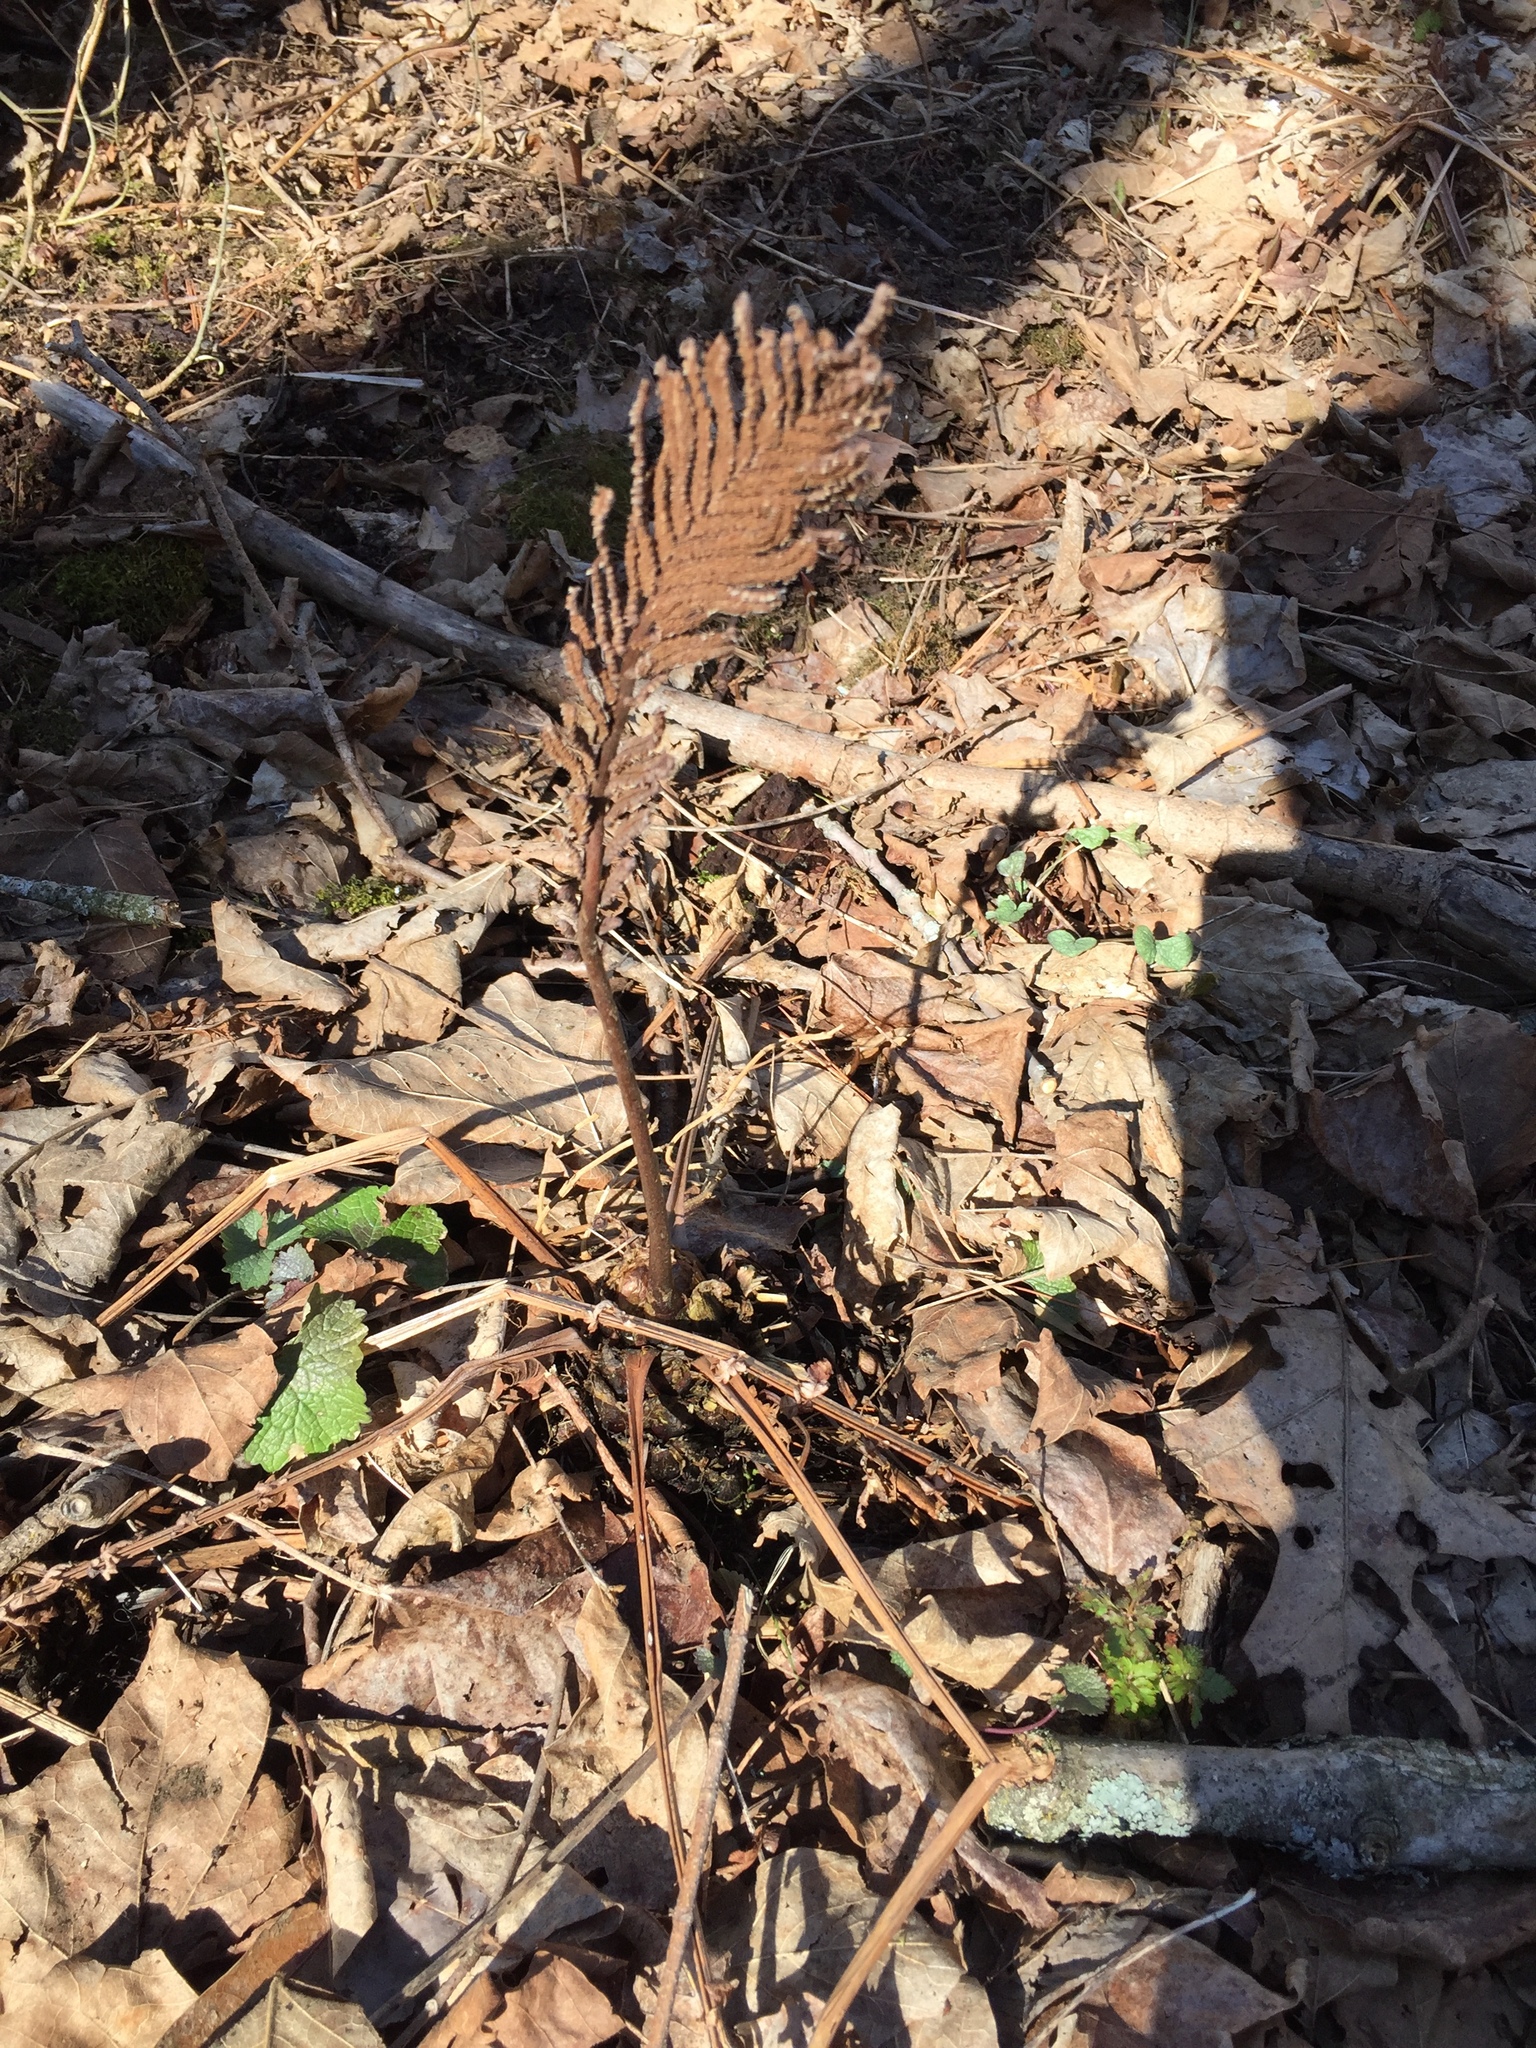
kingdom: Plantae
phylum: Tracheophyta
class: Polypodiopsida
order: Polypodiales
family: Onocleaceae
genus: Matteuccia
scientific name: Matteuccia struthiopteris
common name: Ostrich fern
